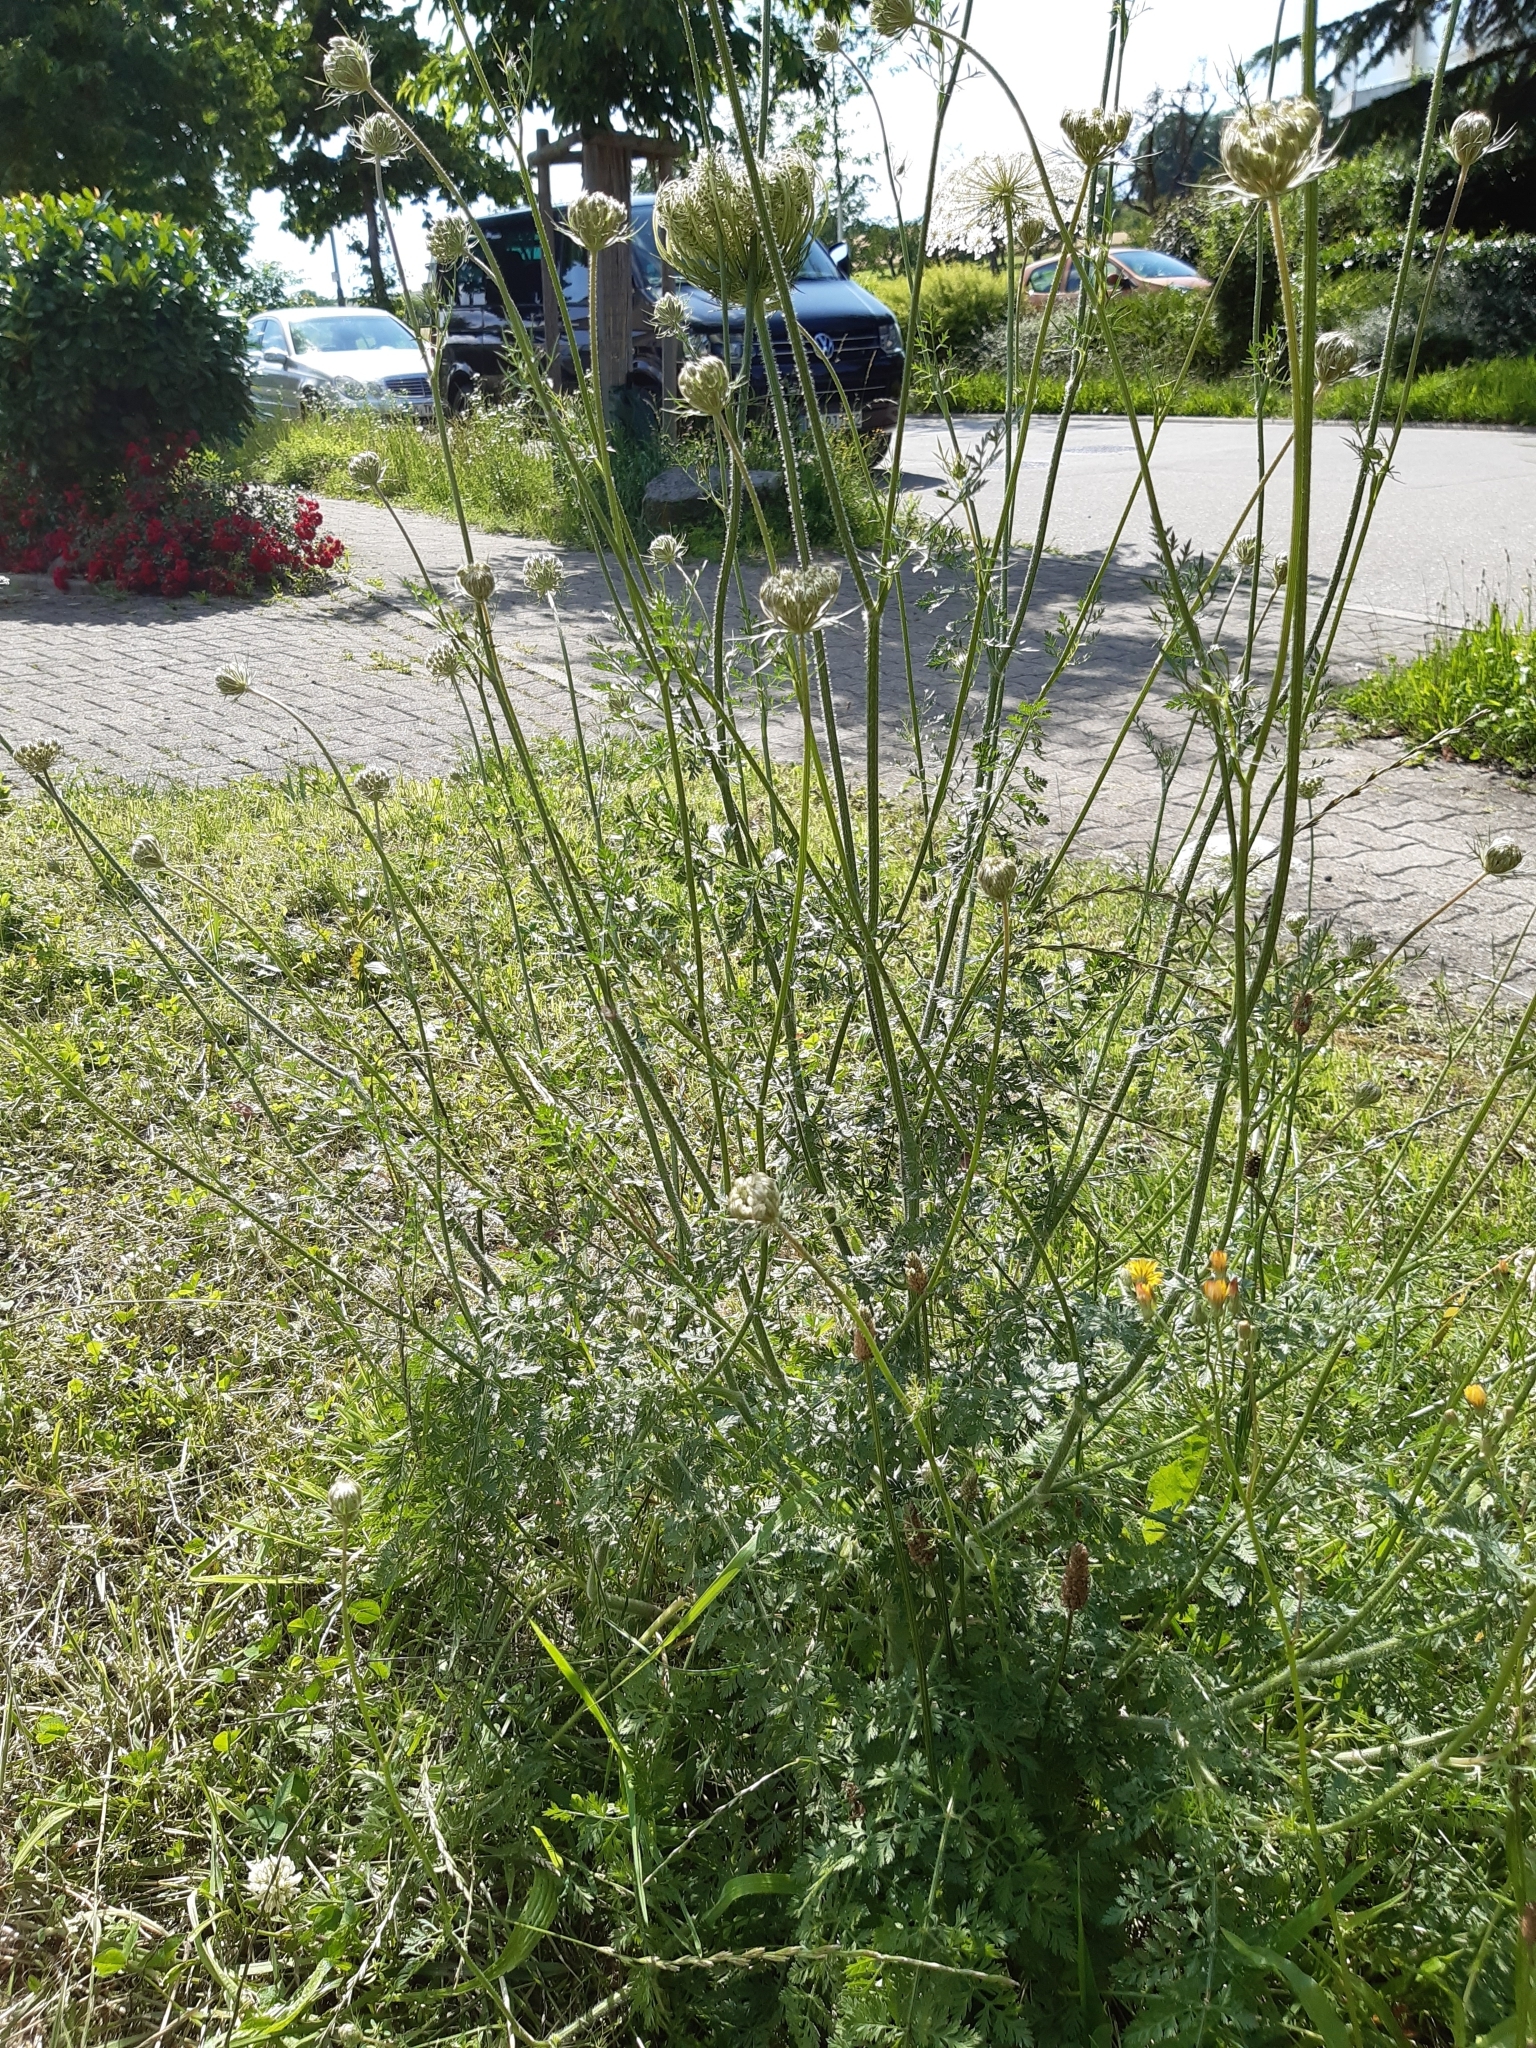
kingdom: Plantae
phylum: Tracheophyta
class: Magnoliopsida
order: Apiales
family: Apiaceae
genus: Daucus
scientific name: Daucus carota
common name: Wild carrot
